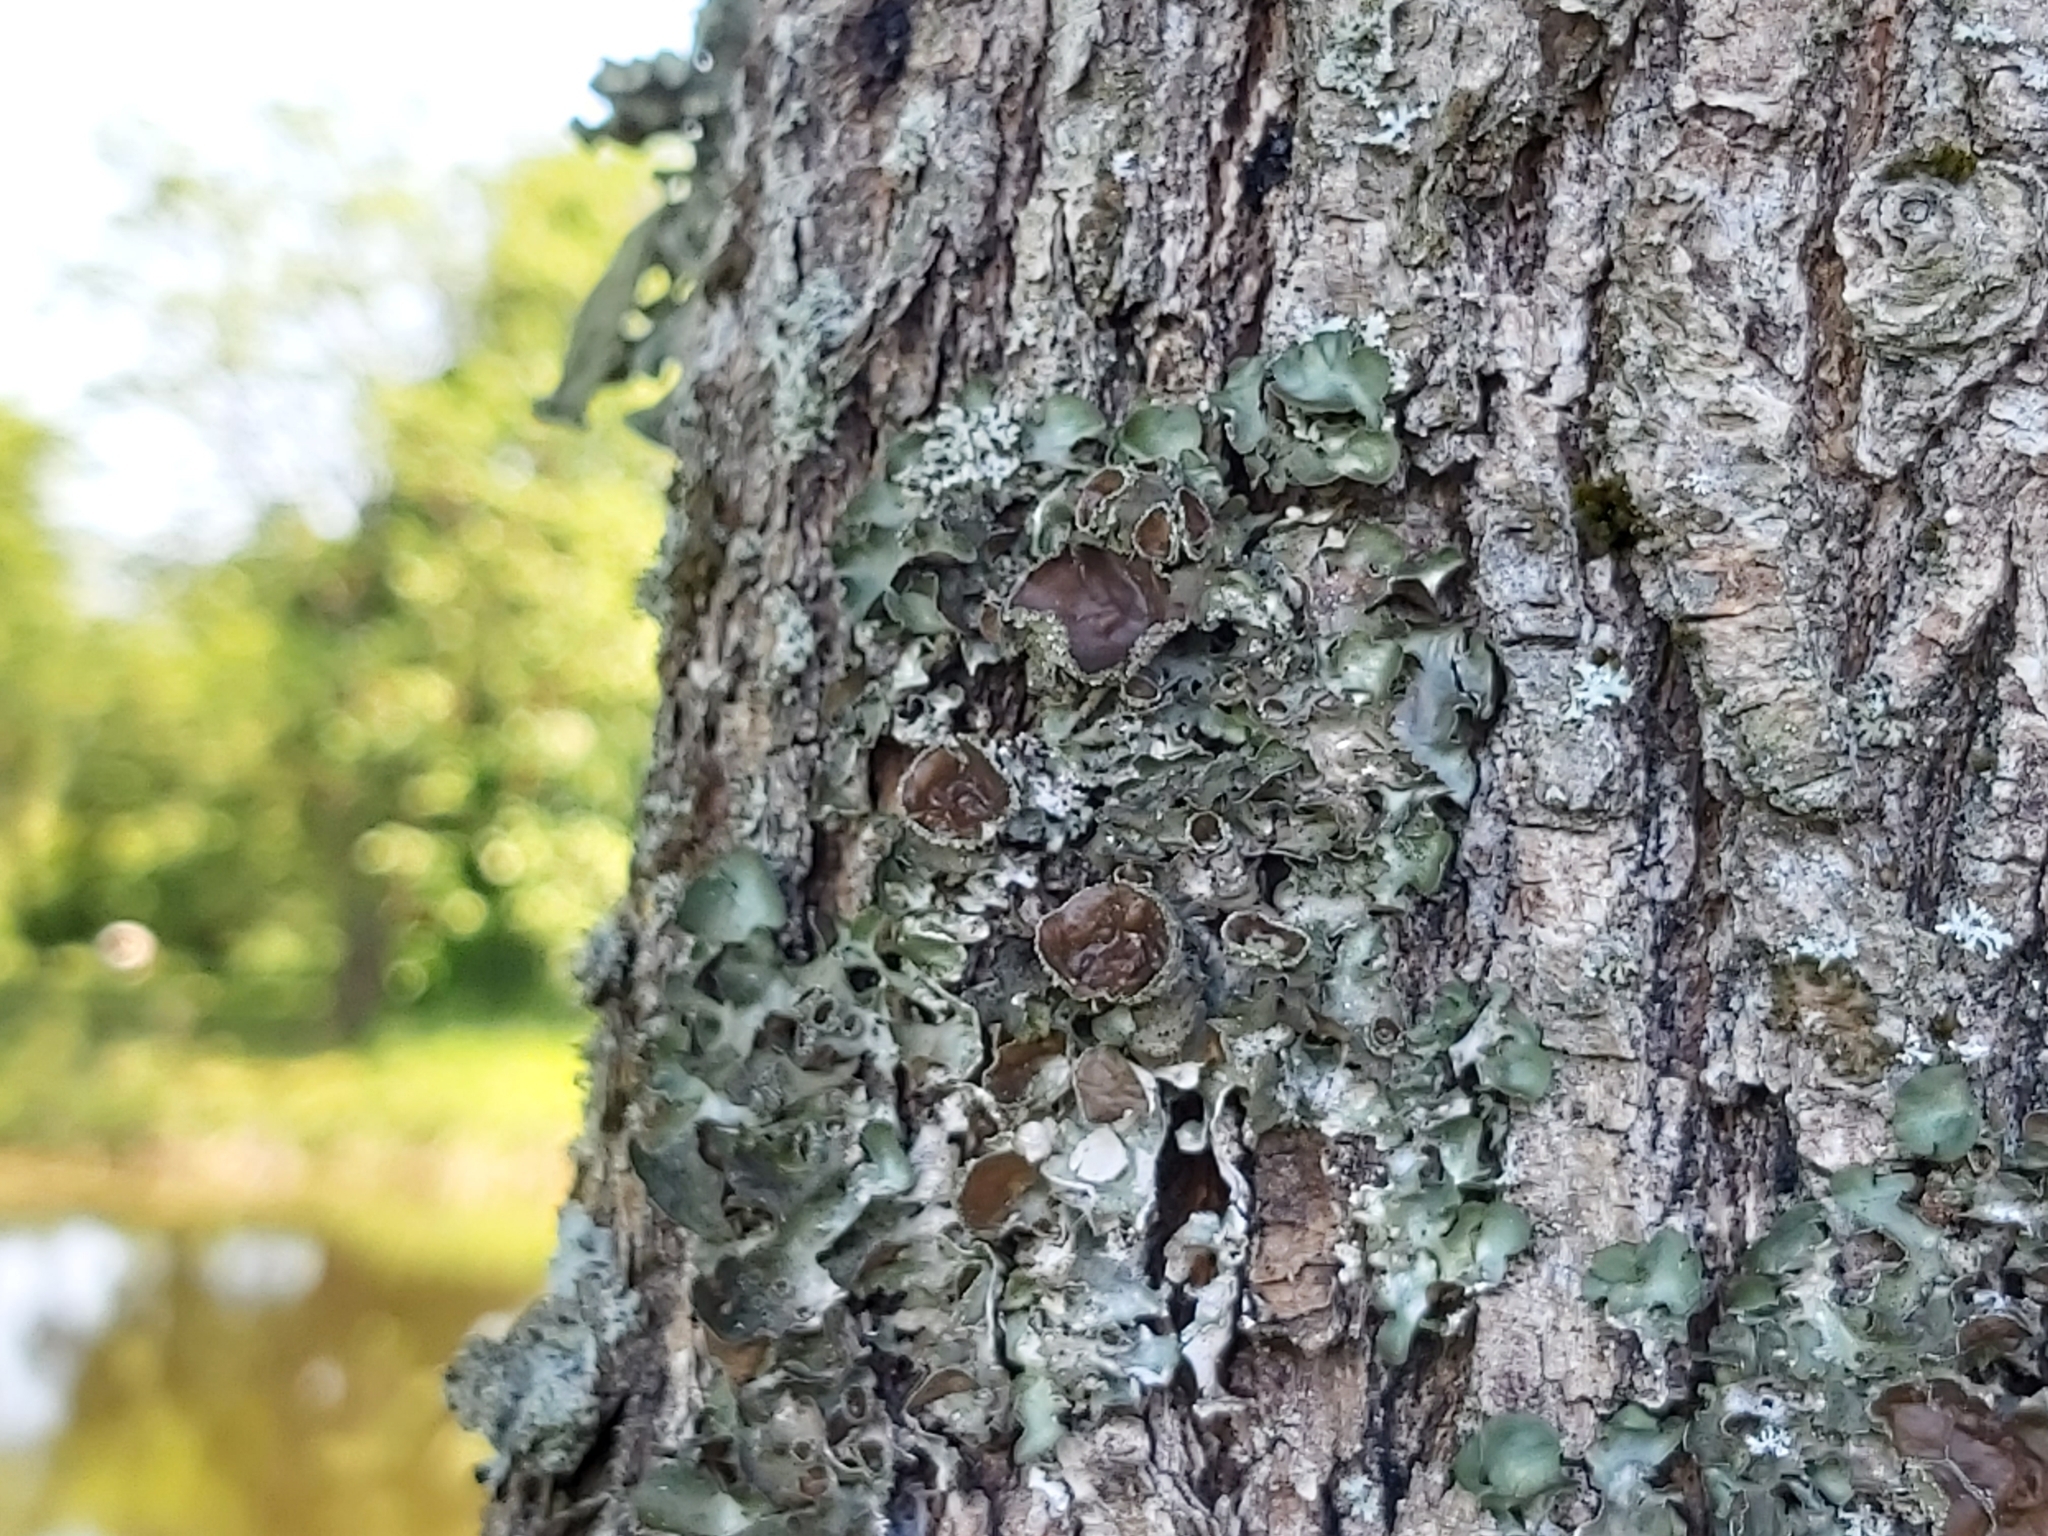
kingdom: Fungi
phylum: Ascomycota
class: Lecanoromycetes
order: Lecanorales
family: Parmeliaceae
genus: Pleurosticta
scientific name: Pleurosticta acetabulum
